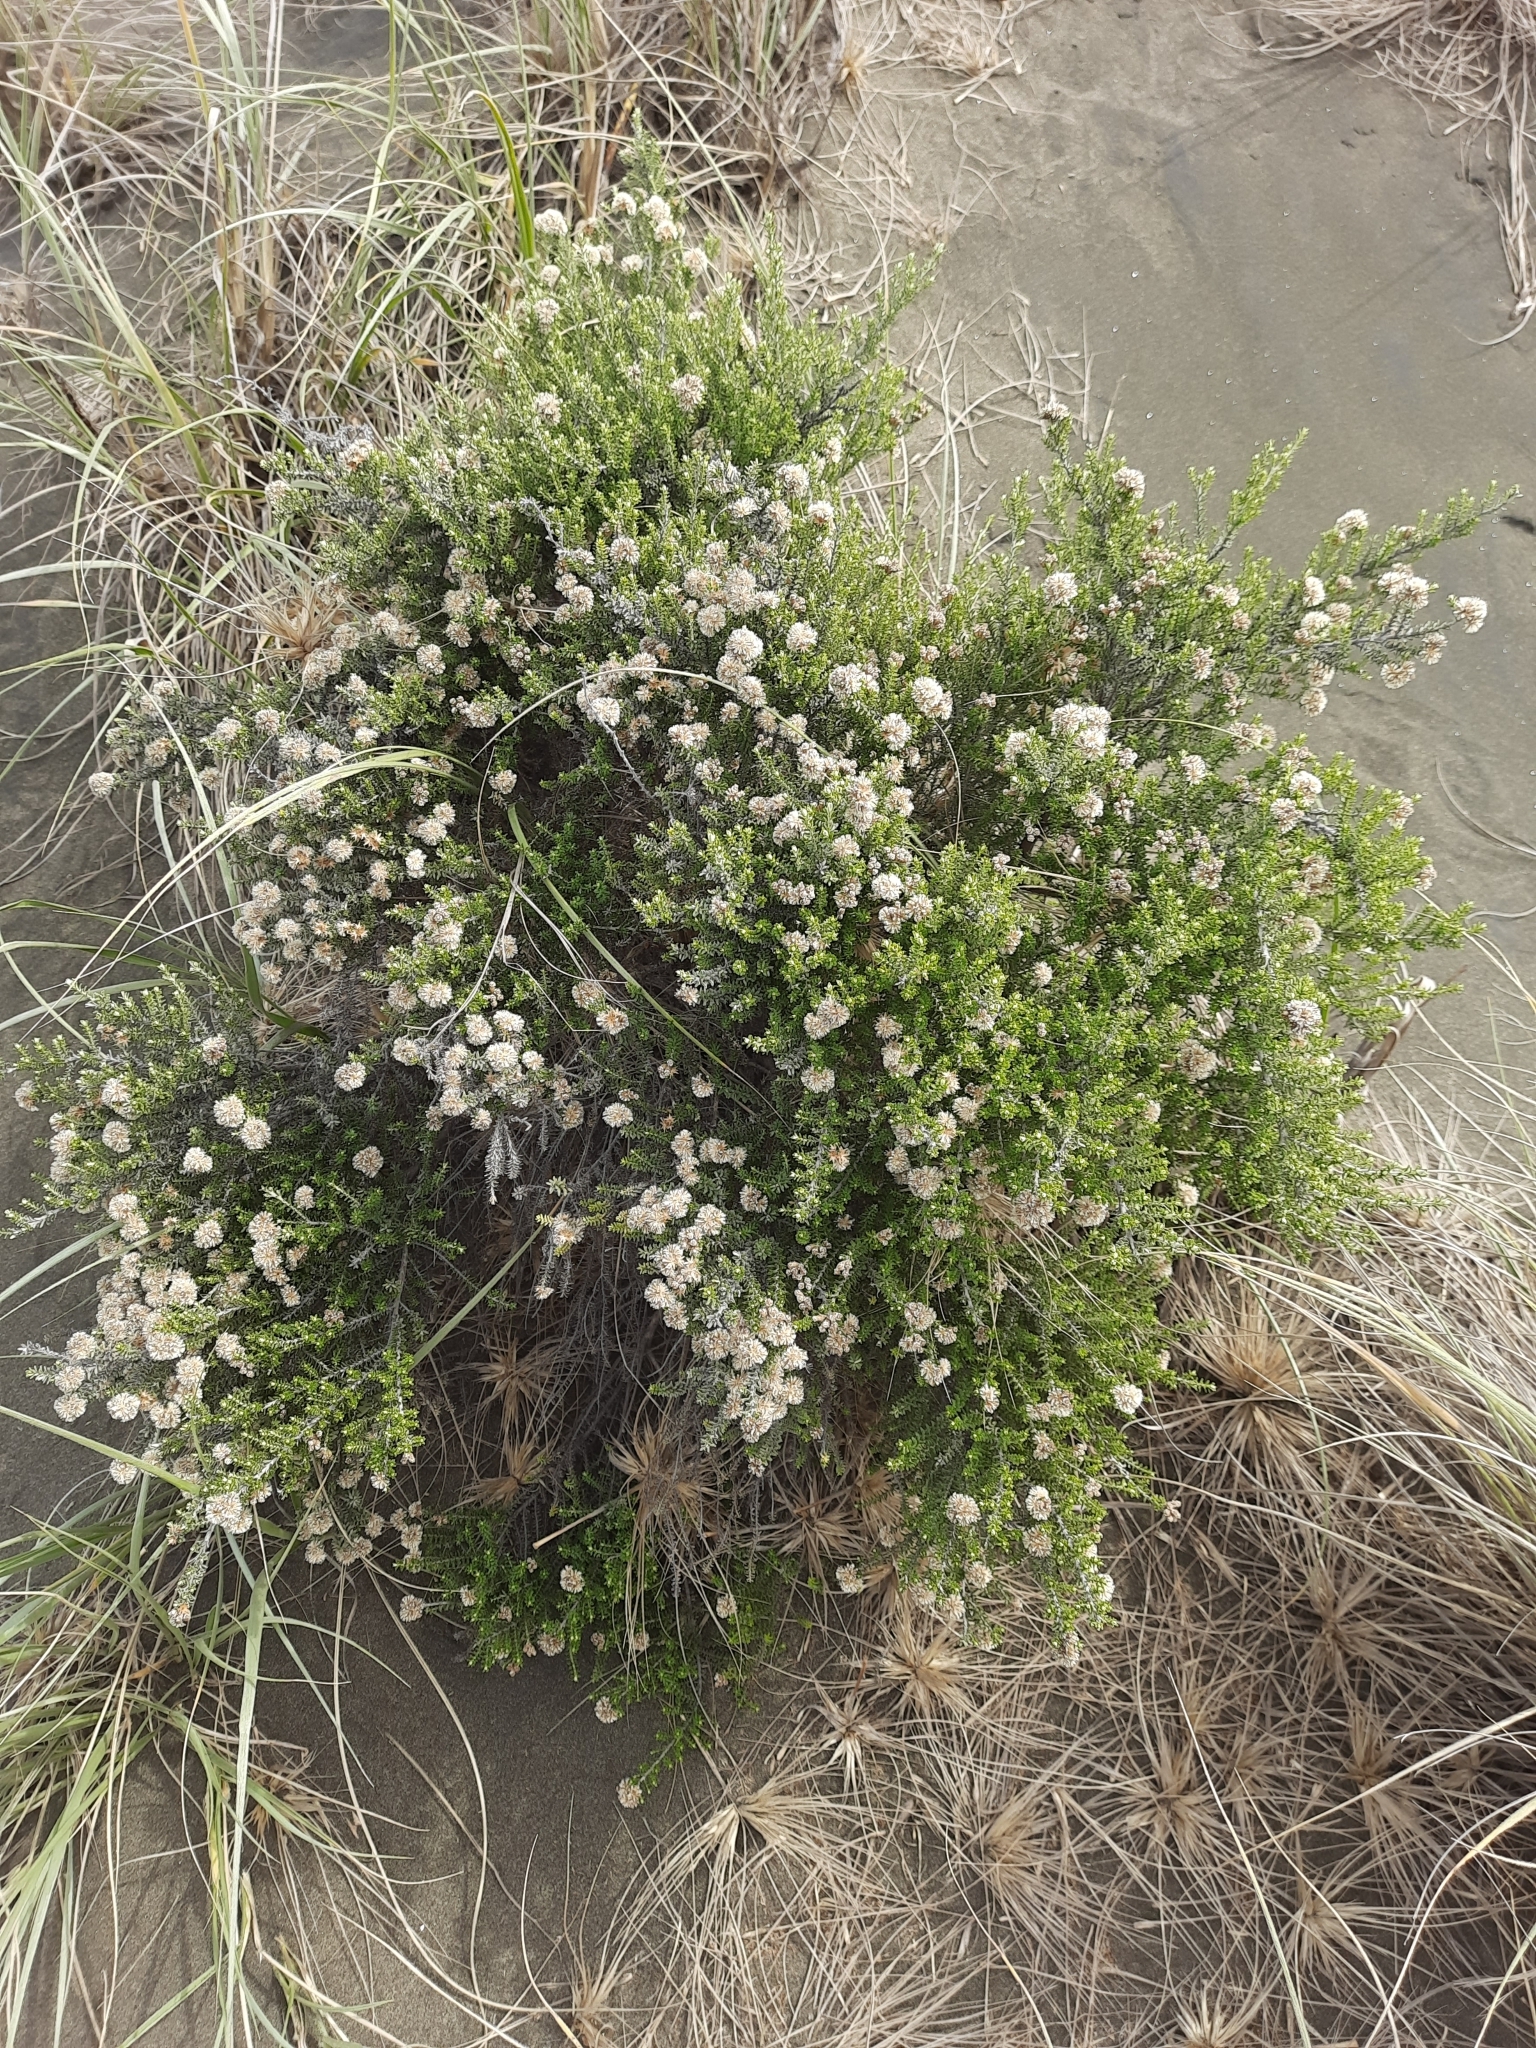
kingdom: Plantae
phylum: Tracheophyta
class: Magnoliopsida
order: Asterales
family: Asteraceae
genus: Ozothamnus
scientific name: Ozothamnus leptophyllus
